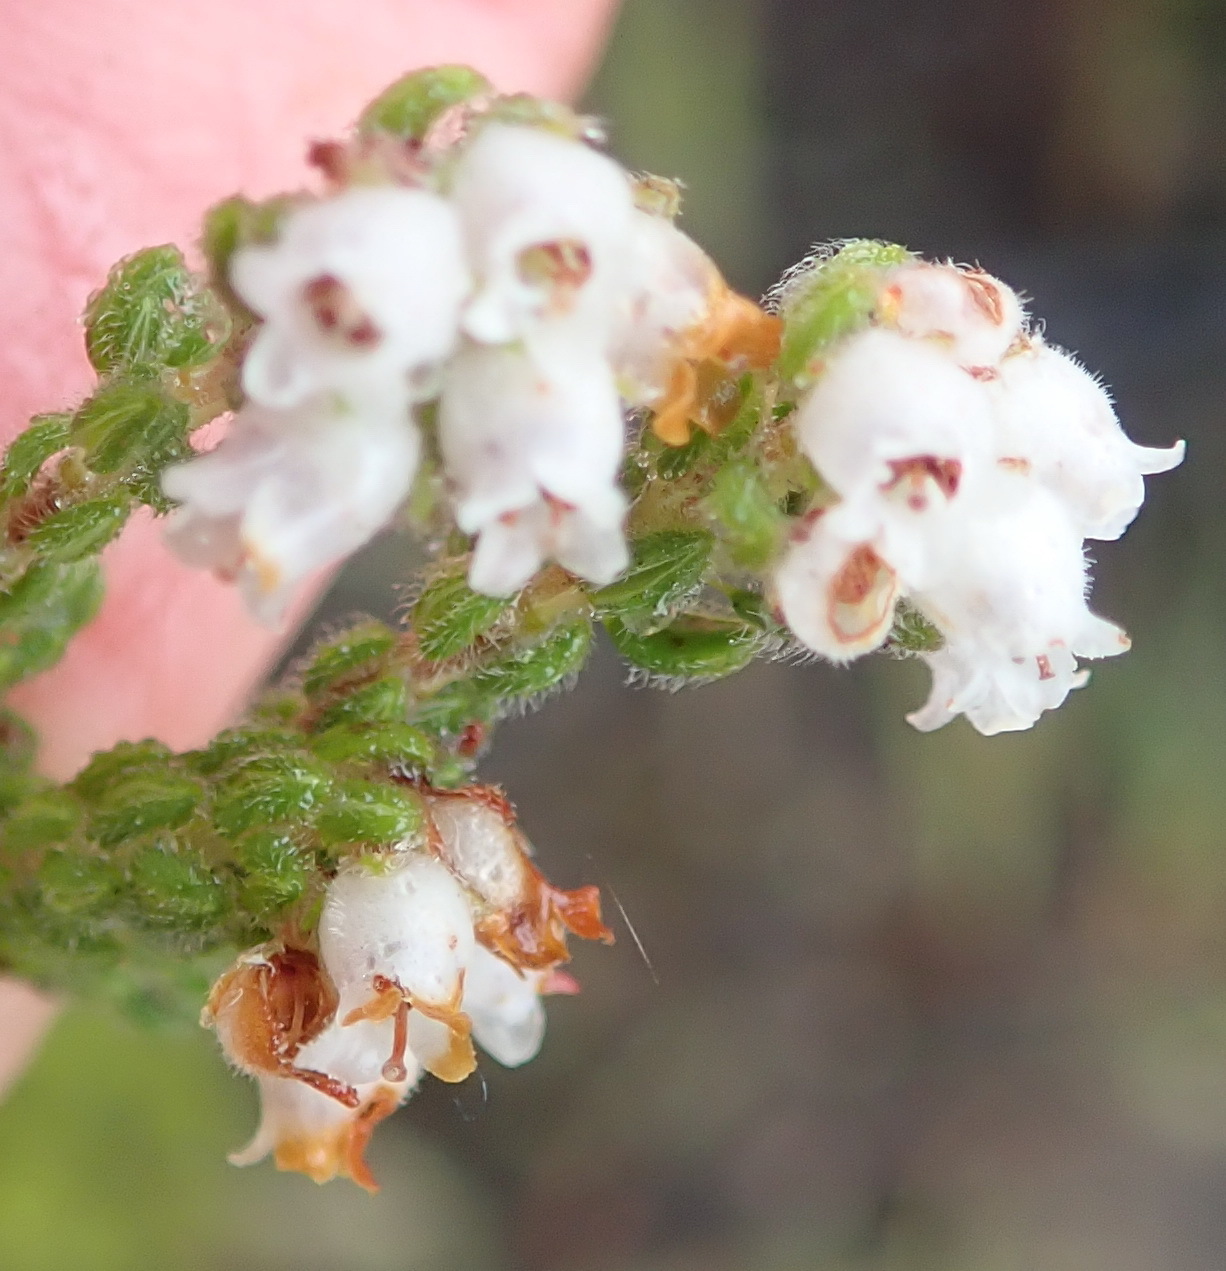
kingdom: Plantae
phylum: Tracheophyta
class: Magnoliopsida
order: Ericales
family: Ericaceae
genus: Erica
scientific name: Erica oreotragus
